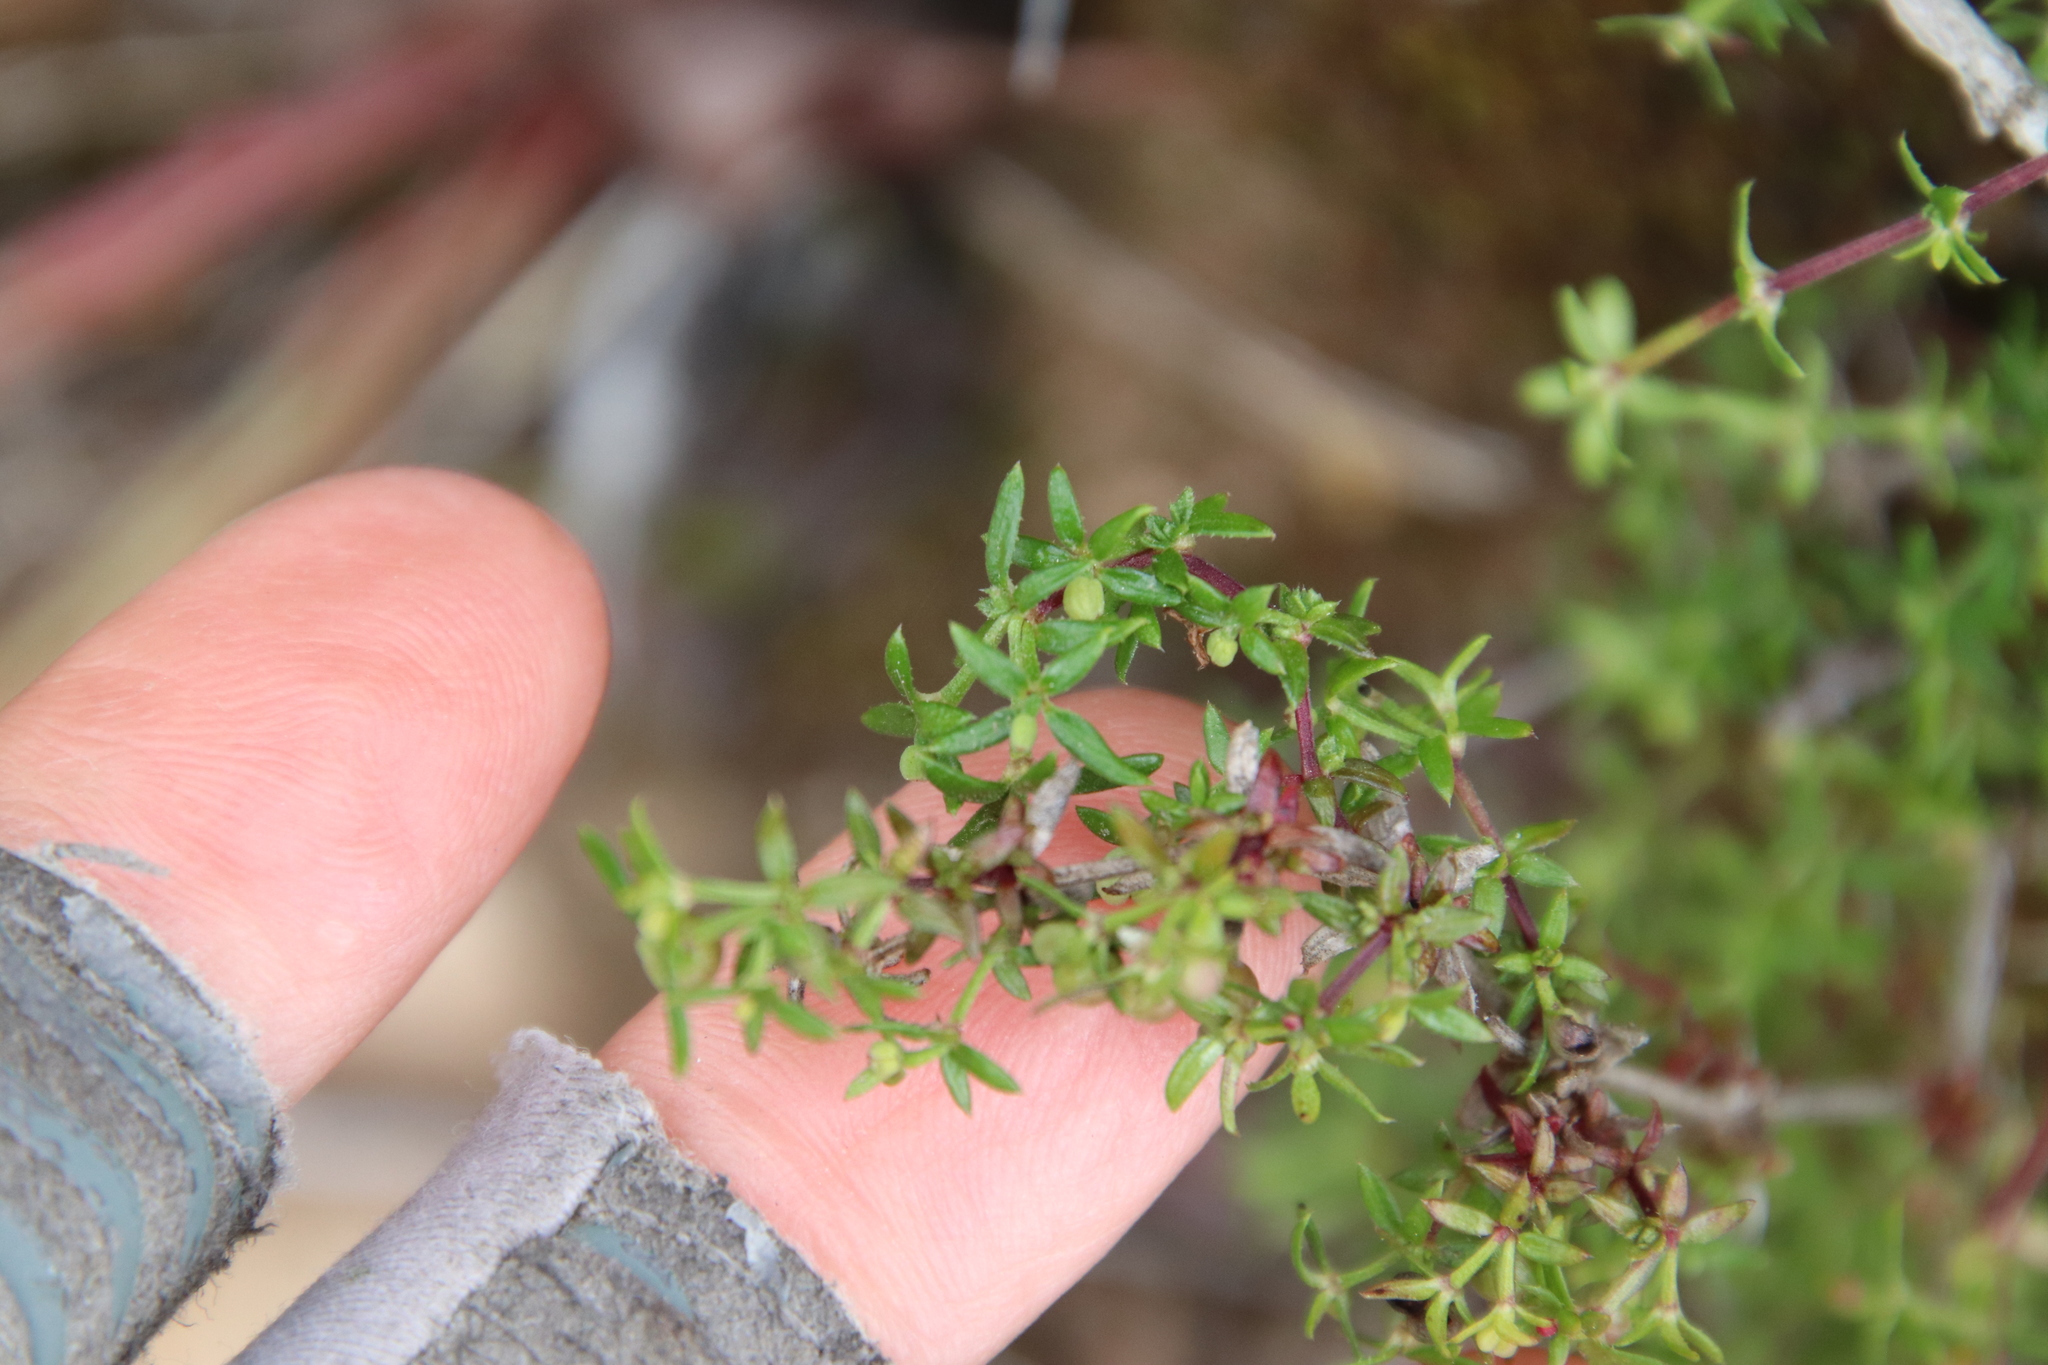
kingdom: Plantae
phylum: Tracheophyta
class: Magnoliopsida
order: Gentianales
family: Rubiaceae
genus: Galium
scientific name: Galium nuttallii
